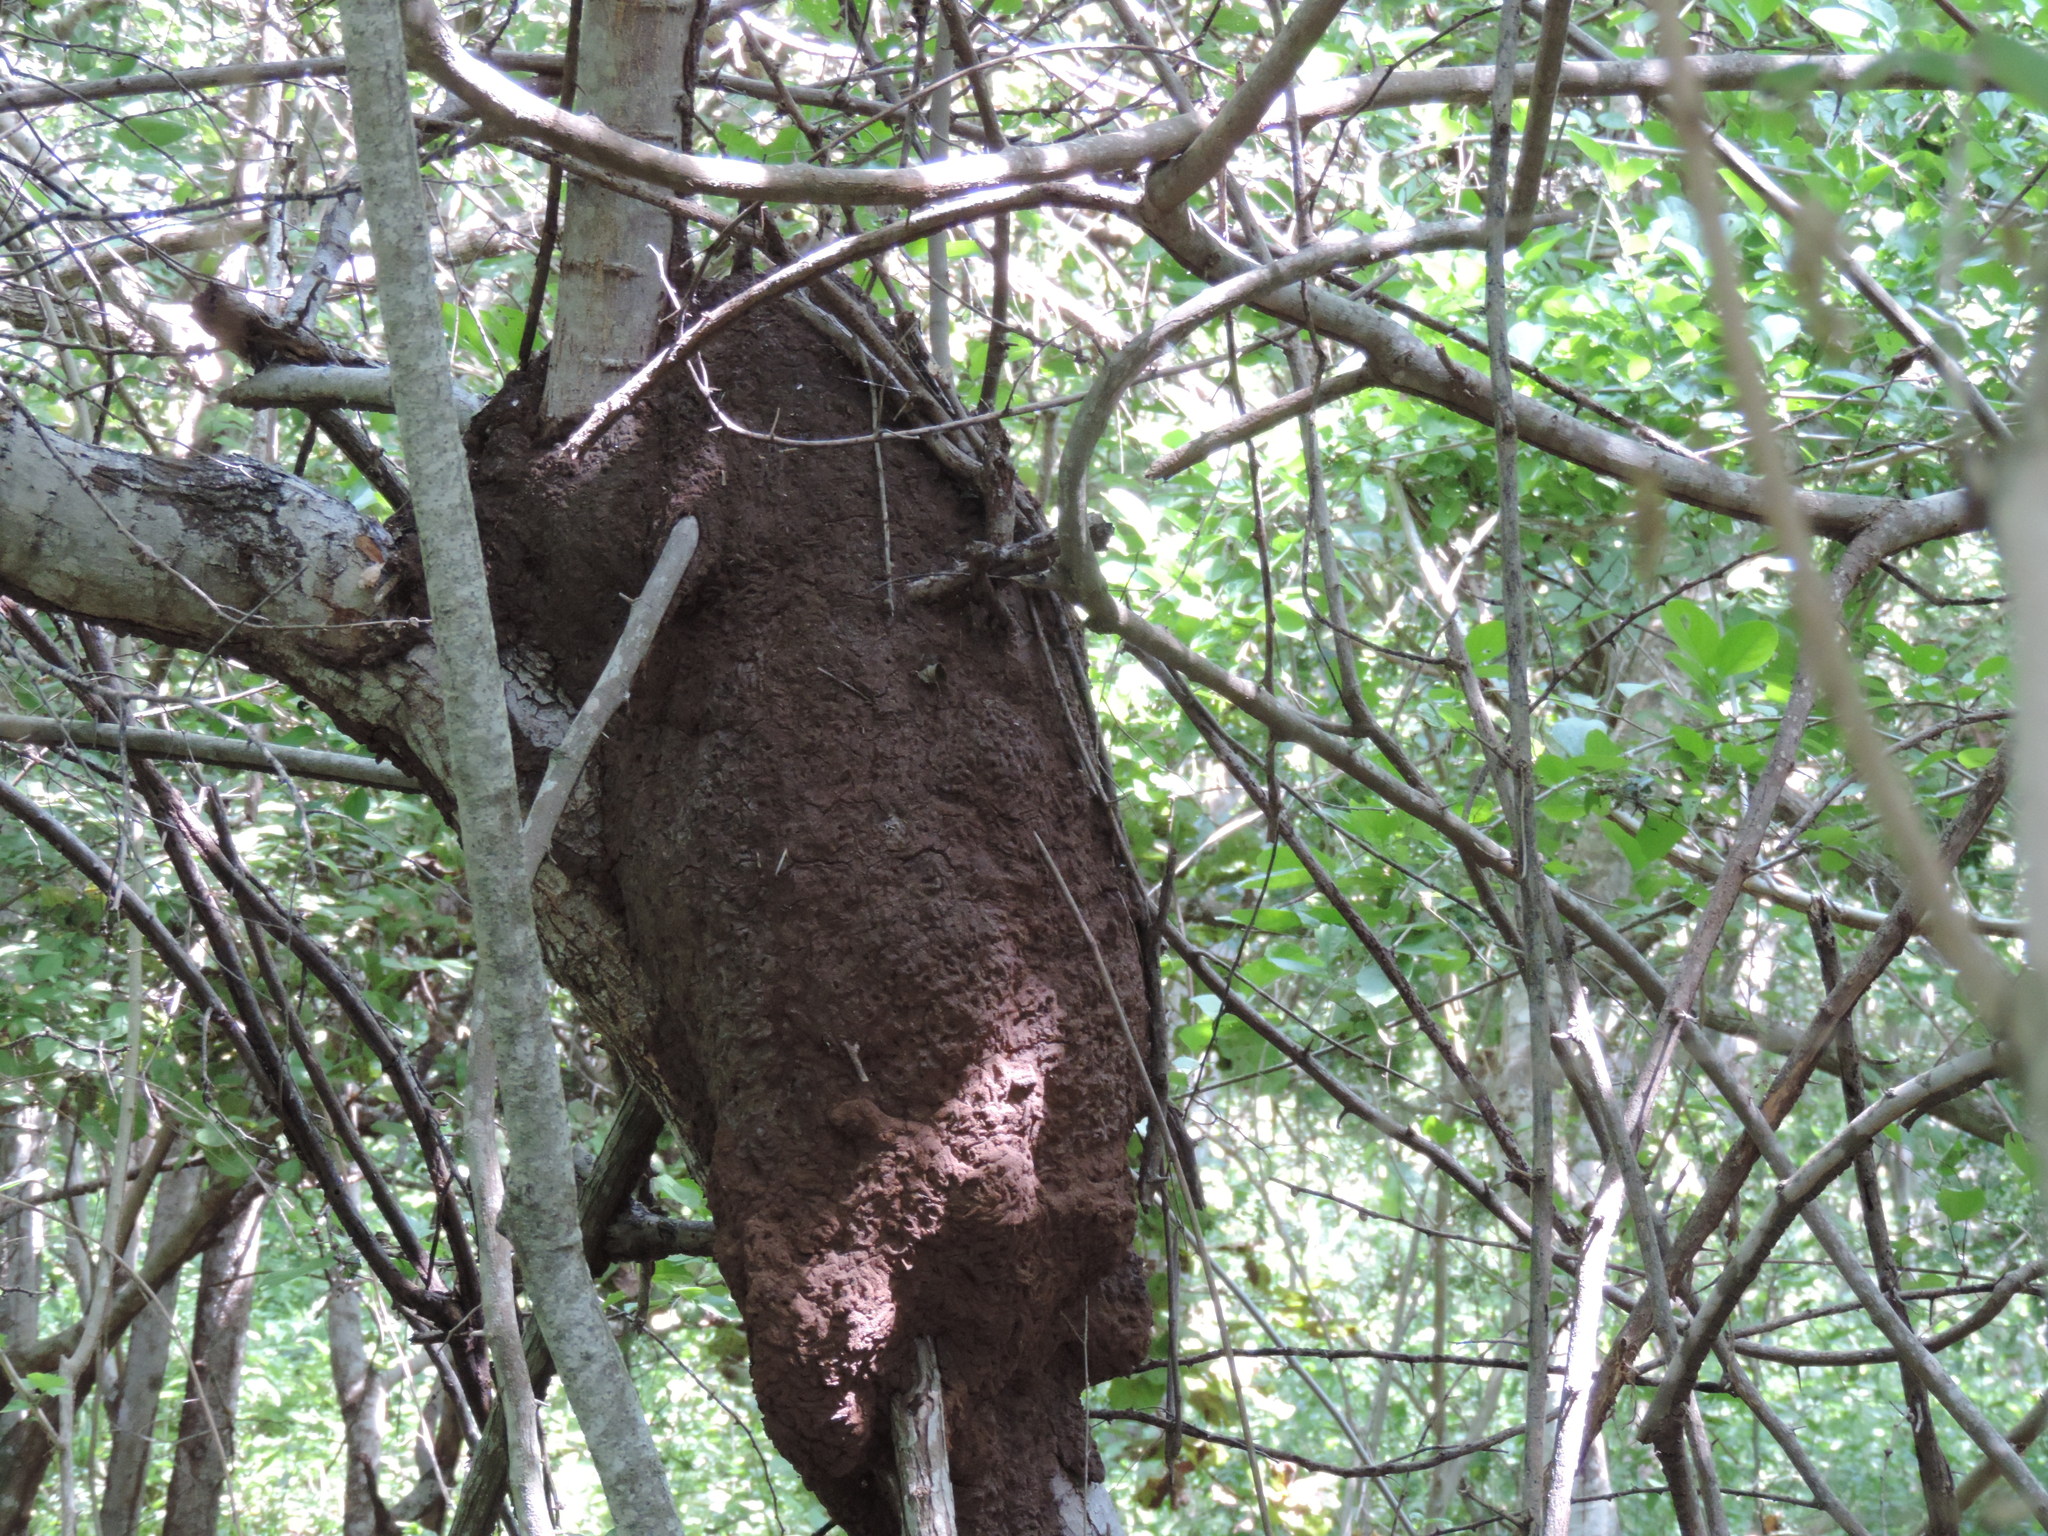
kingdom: Animalia
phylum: Arthropoda
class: Insecta
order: Blattodea
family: Termitidae
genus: Nasutitermes
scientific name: Nasutitermes
